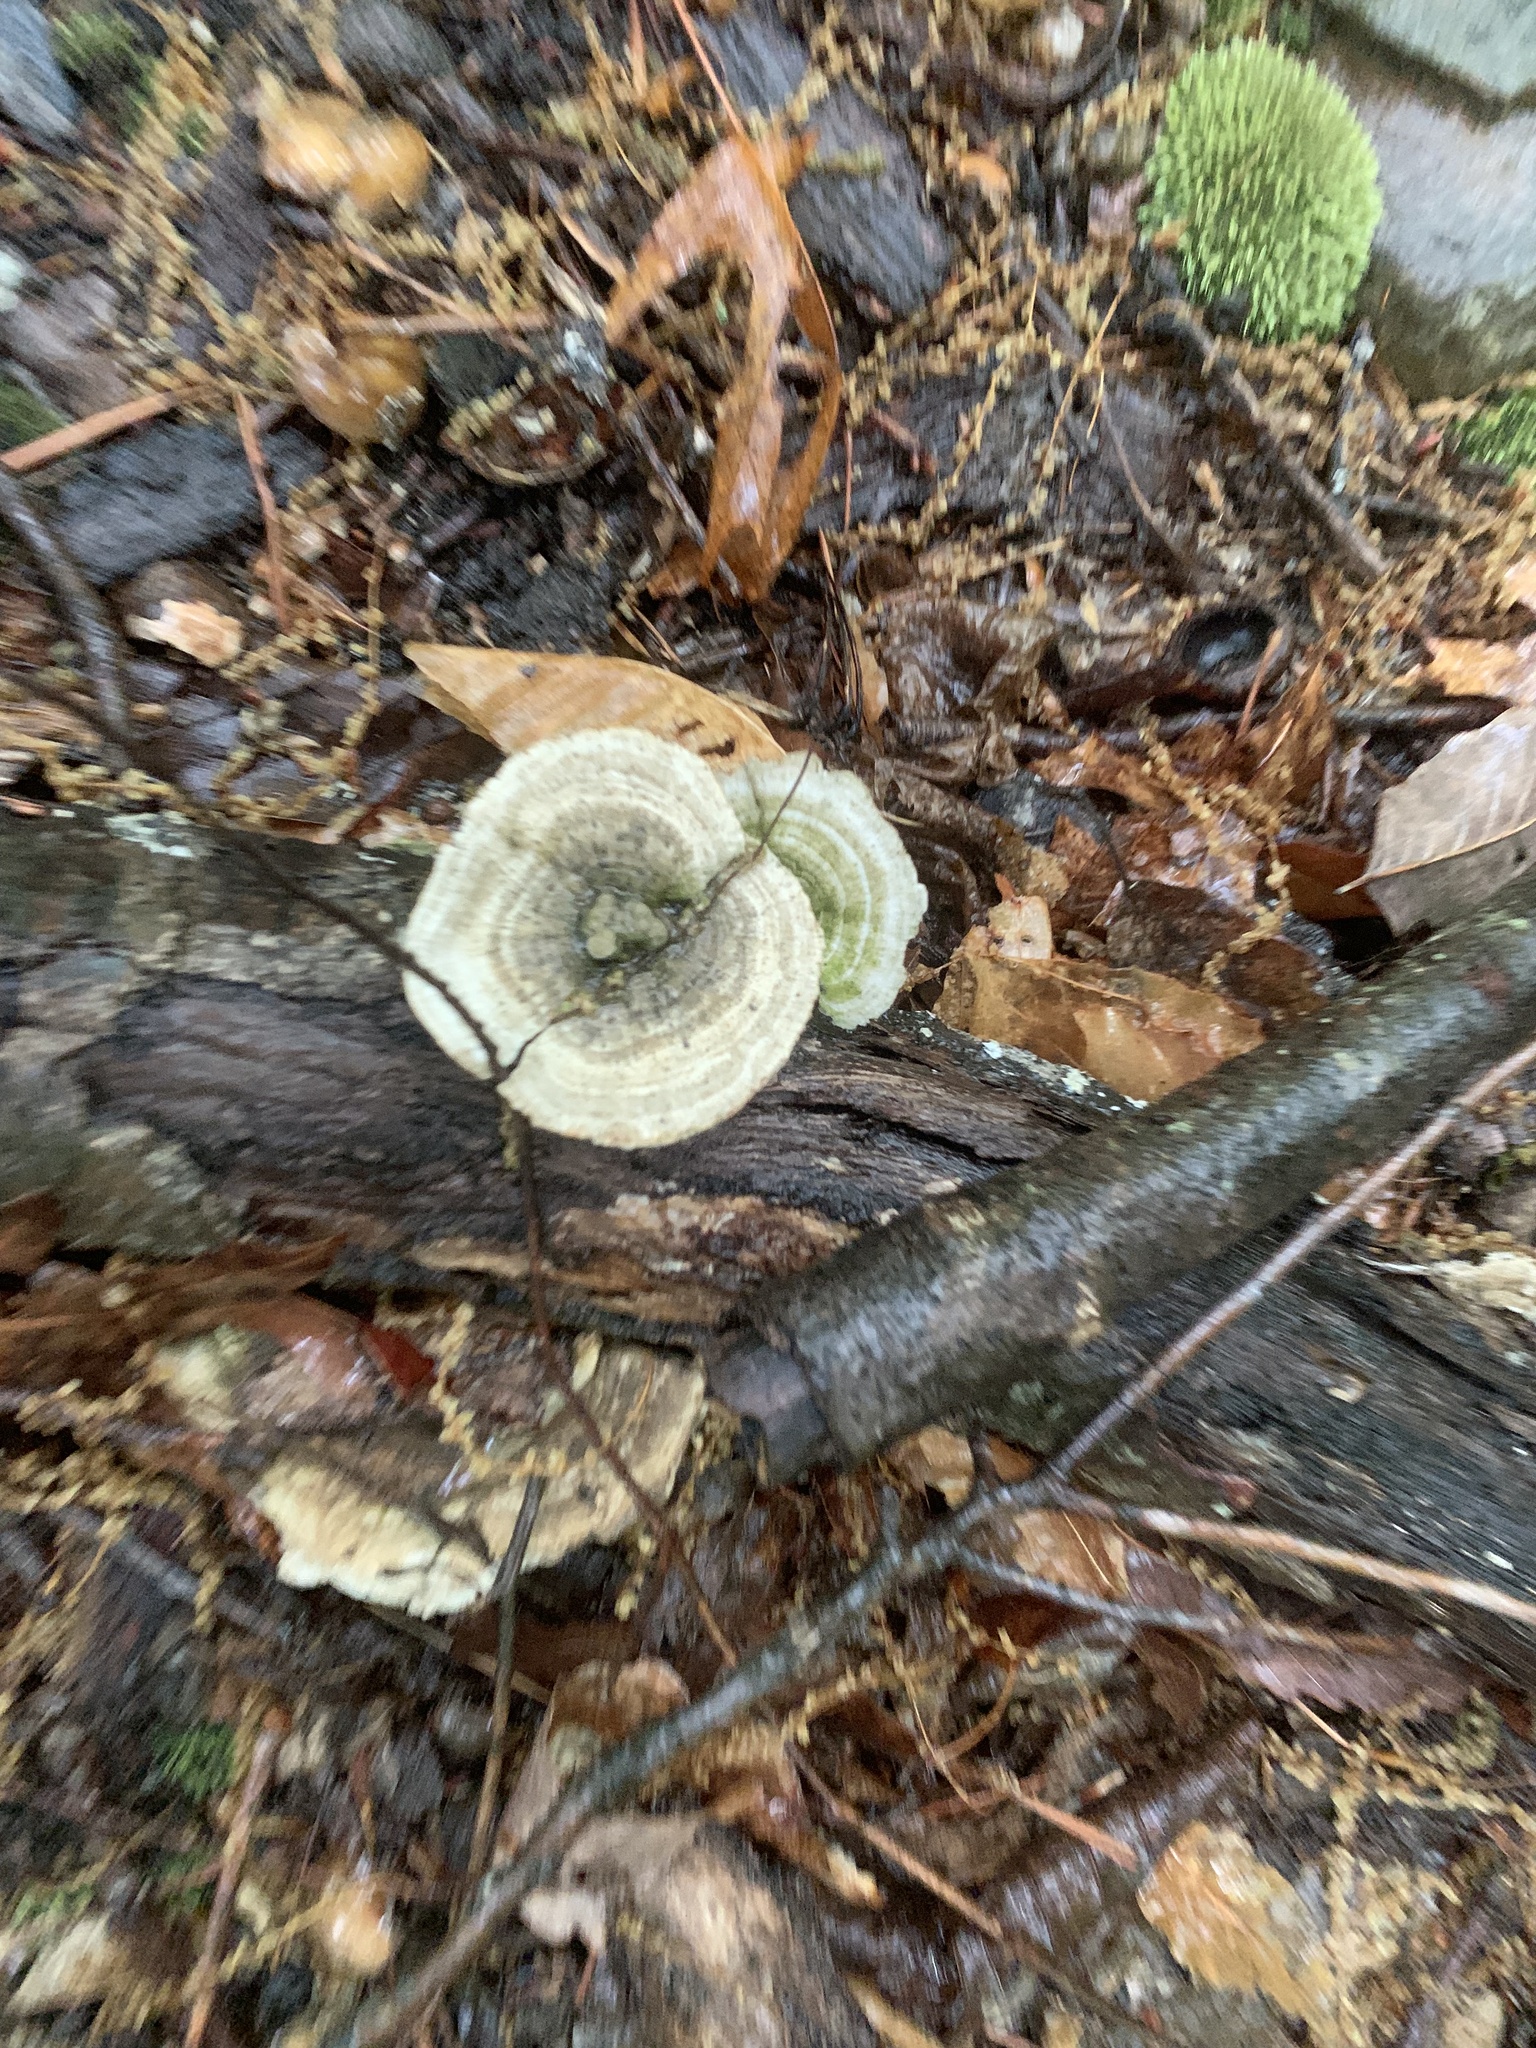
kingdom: Fungi
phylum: Basidiomycota
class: Agaricomycetes
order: Polyporales
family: Polyporaceae
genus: Lenzites
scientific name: Lenzites betulinus
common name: Birch mazegill
